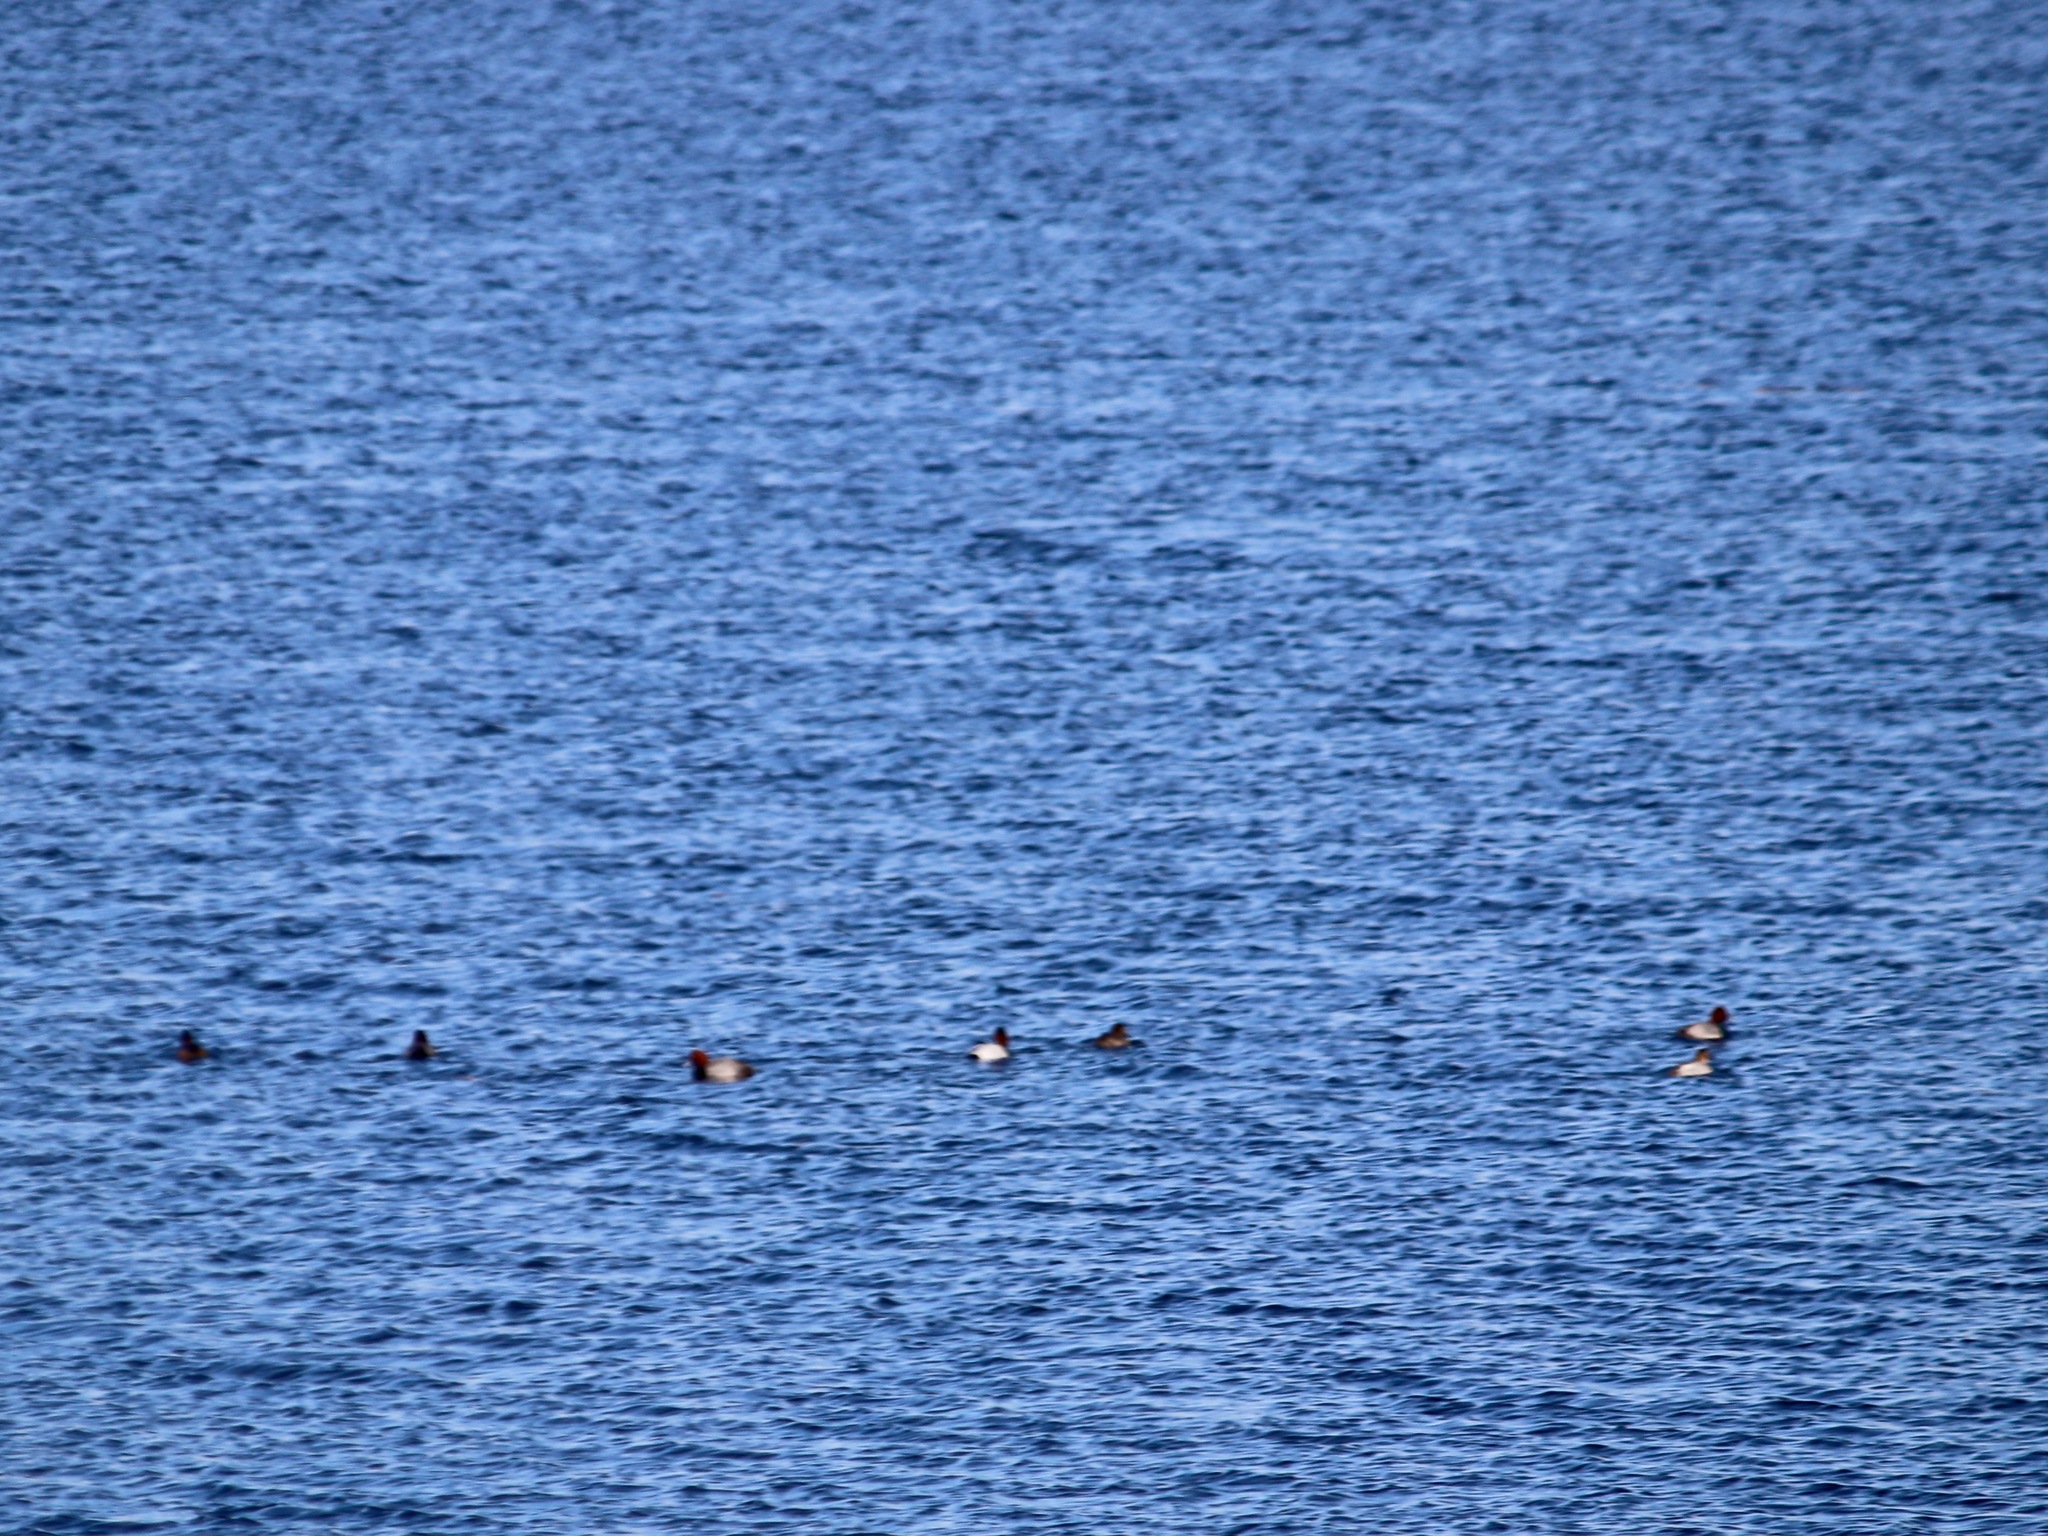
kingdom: Animalia
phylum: Chordata
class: Aves
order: Anseriformes
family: Anatidae
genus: Aythya
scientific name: Aythya valisineria
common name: Canvasback
